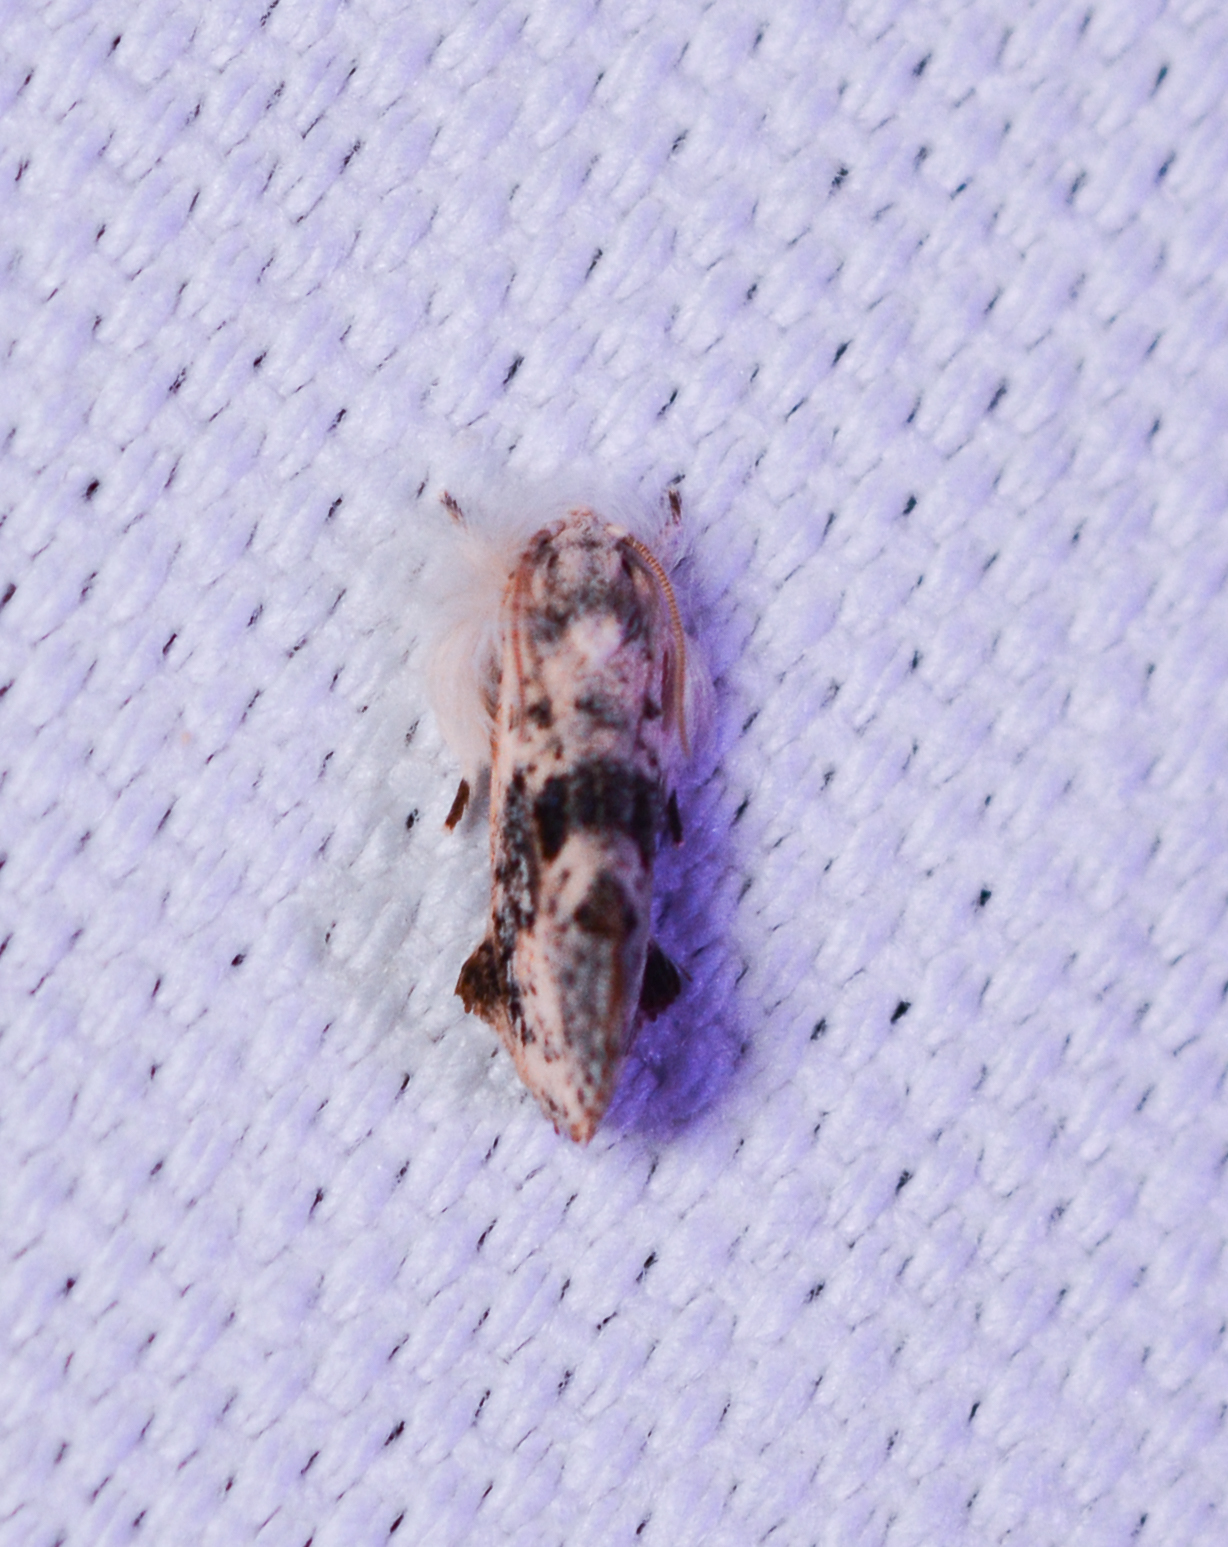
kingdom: Animalia
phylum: Arthropoda
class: Insecta
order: Lepidoptera
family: Tineidae
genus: Acrolophus
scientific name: Acrolophus mycetophagus
